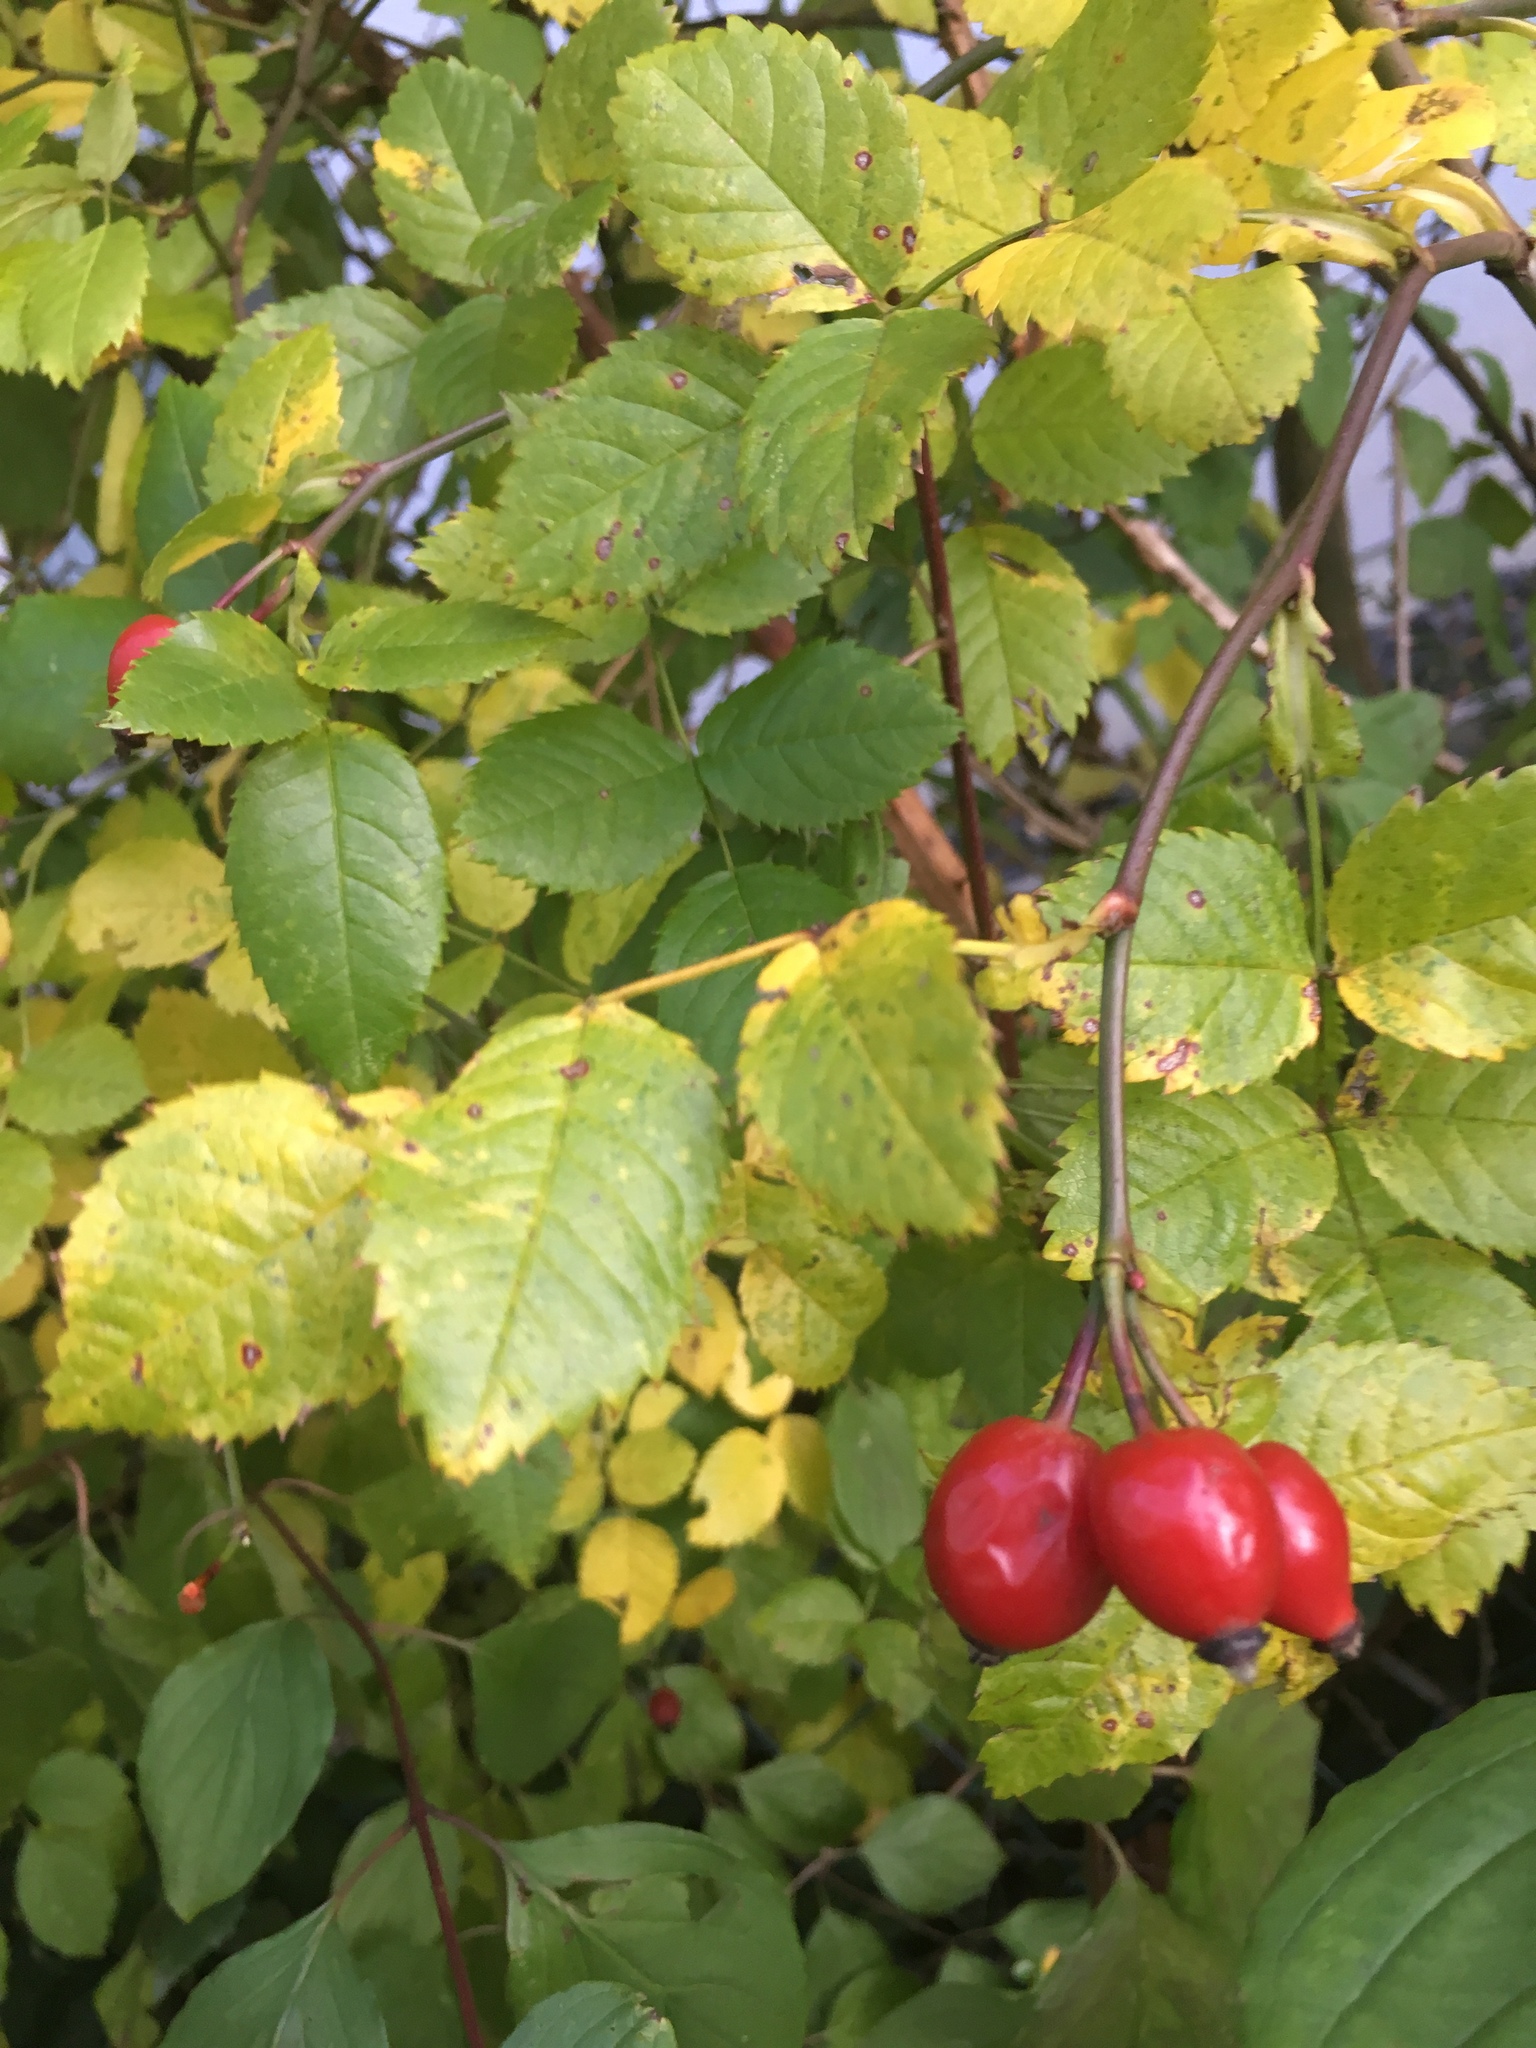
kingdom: Plantae
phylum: Tracheophyta
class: Magnoliopsida
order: Rosales
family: Rosaceae
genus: Rosa
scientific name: Rosa canina
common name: Dog rose
